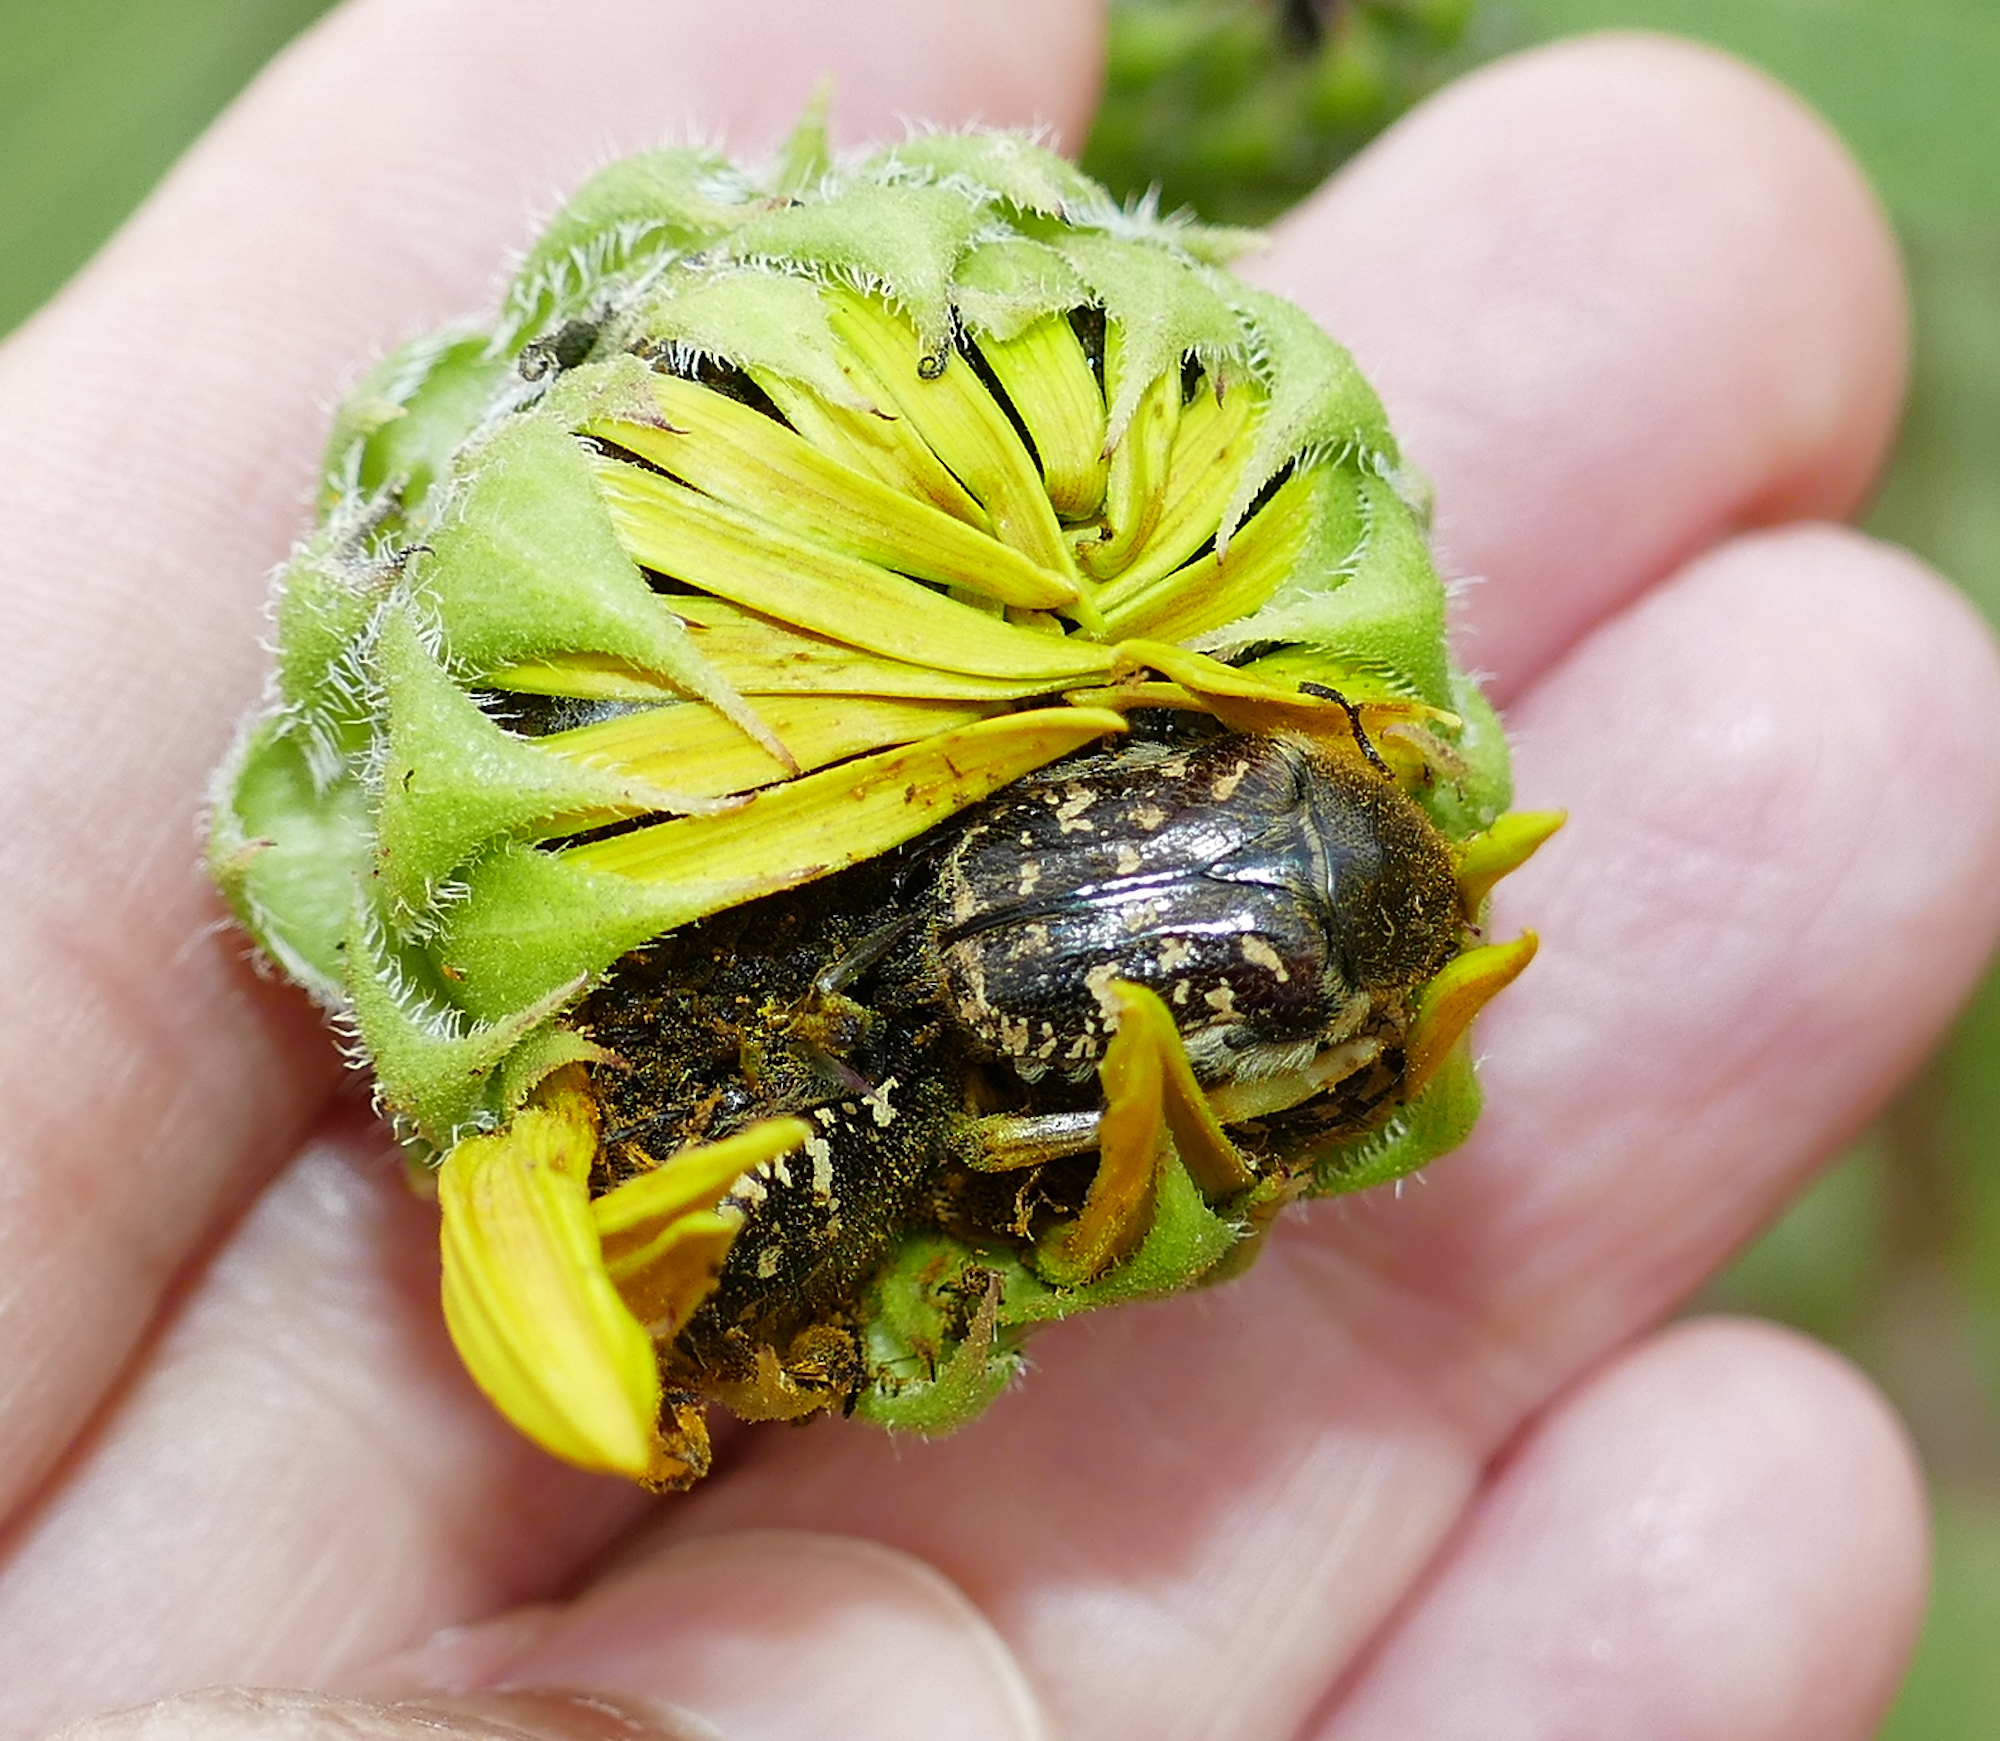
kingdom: Animalia
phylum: Arthropoda
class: Insecta
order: Coleoptera
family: Scarabaeidae
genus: Euphoria
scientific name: Euphoria sonorae
